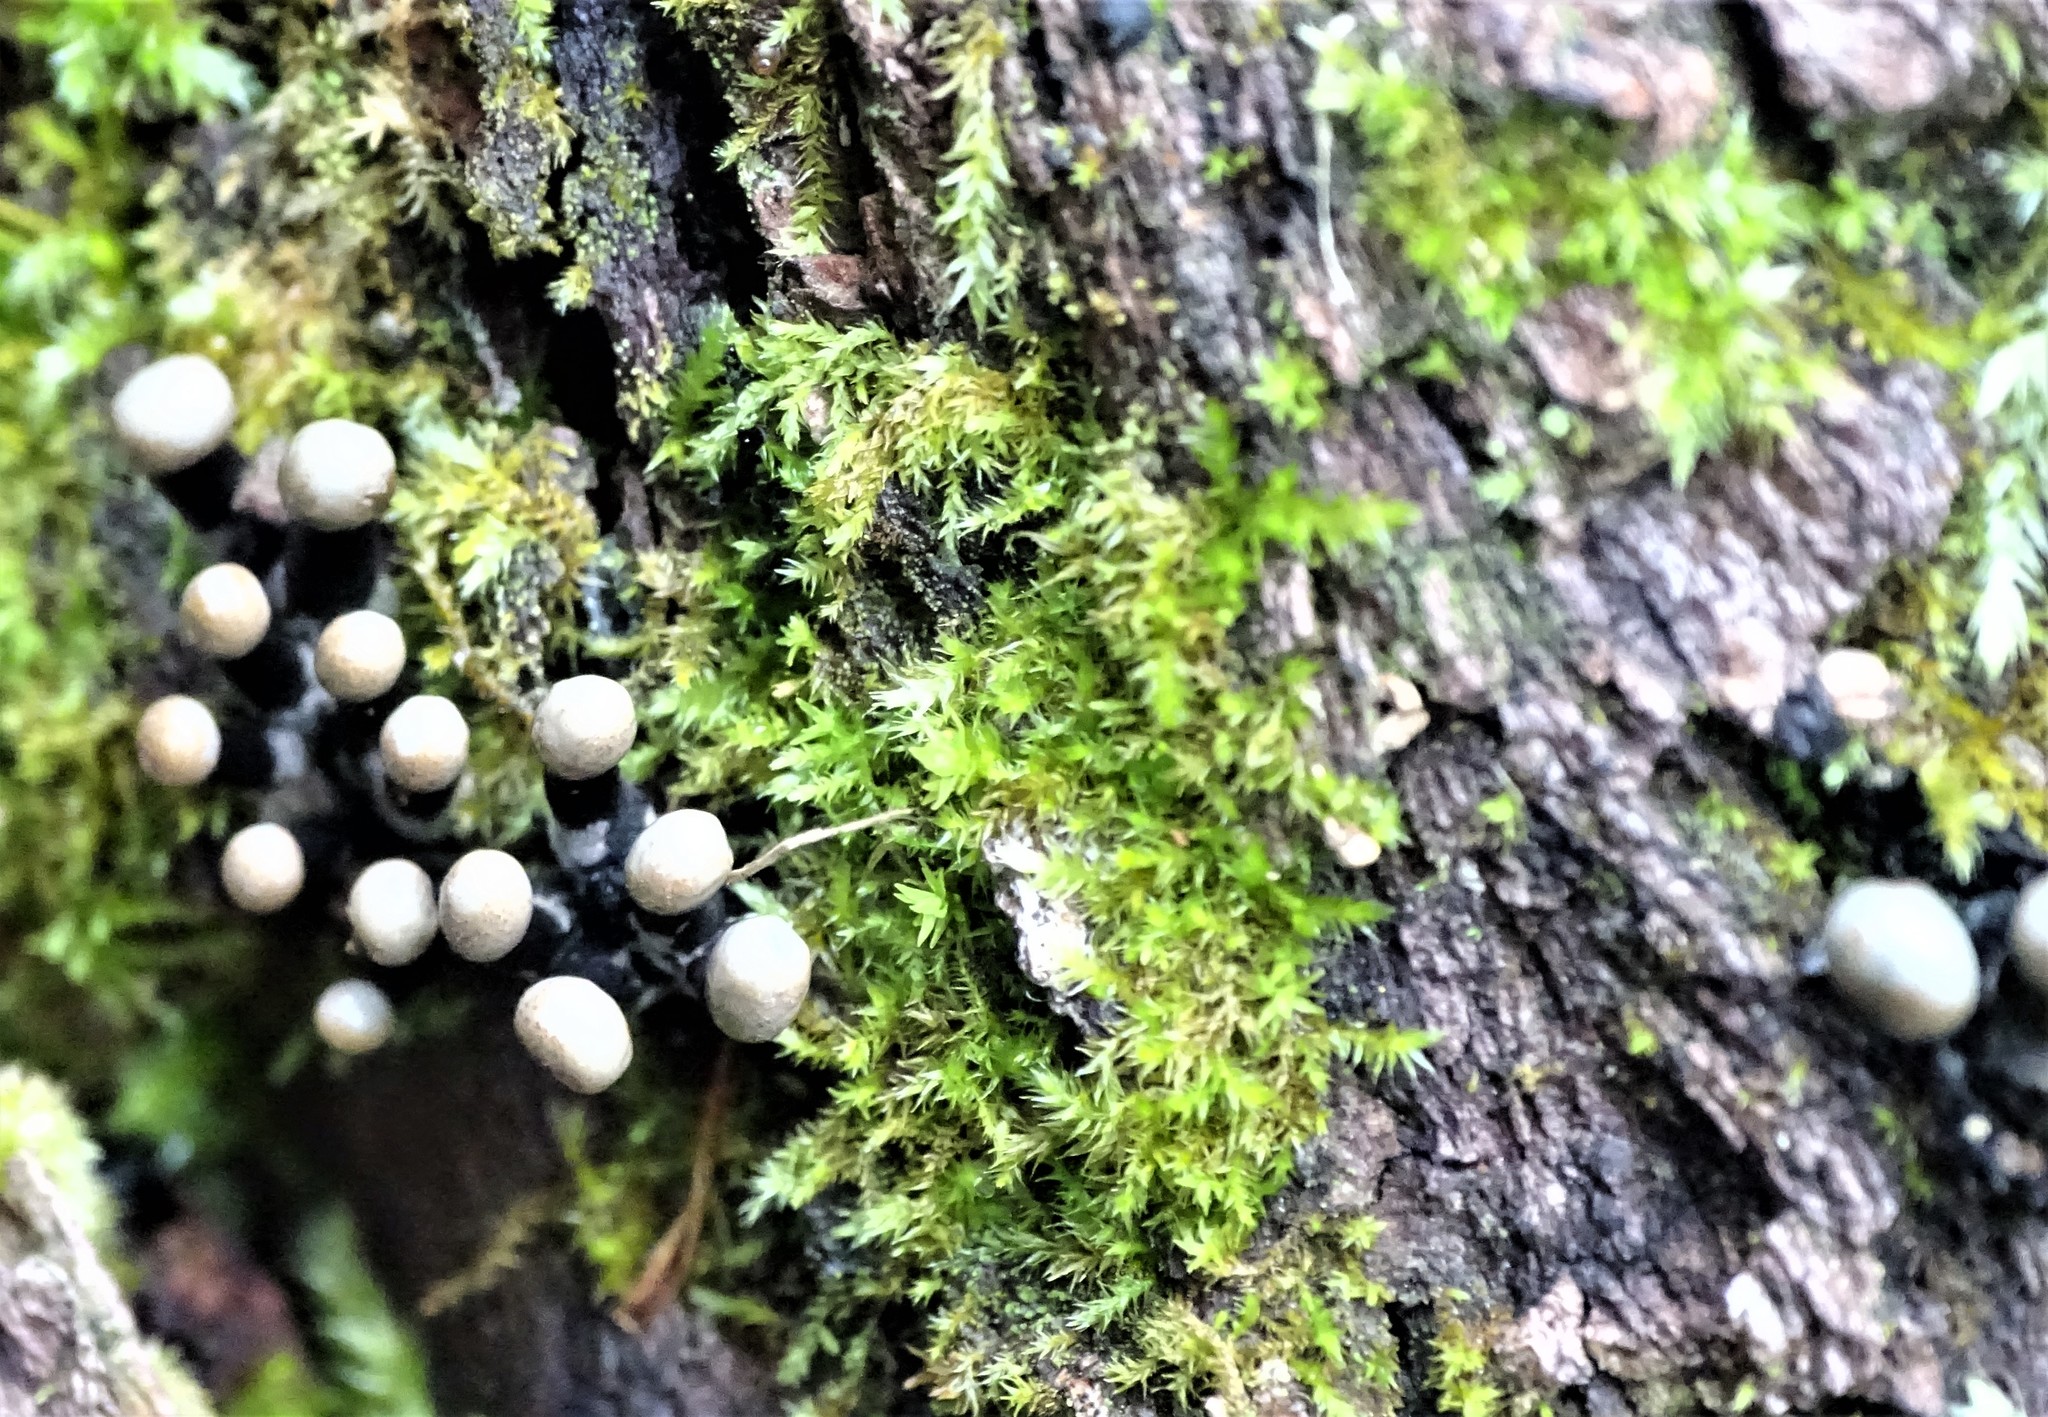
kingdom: Fungi
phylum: Ascomycota
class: Leotiomycetes
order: Helotiales
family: Bulgariaceae
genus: Holwaya
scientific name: Holwaya mucida
